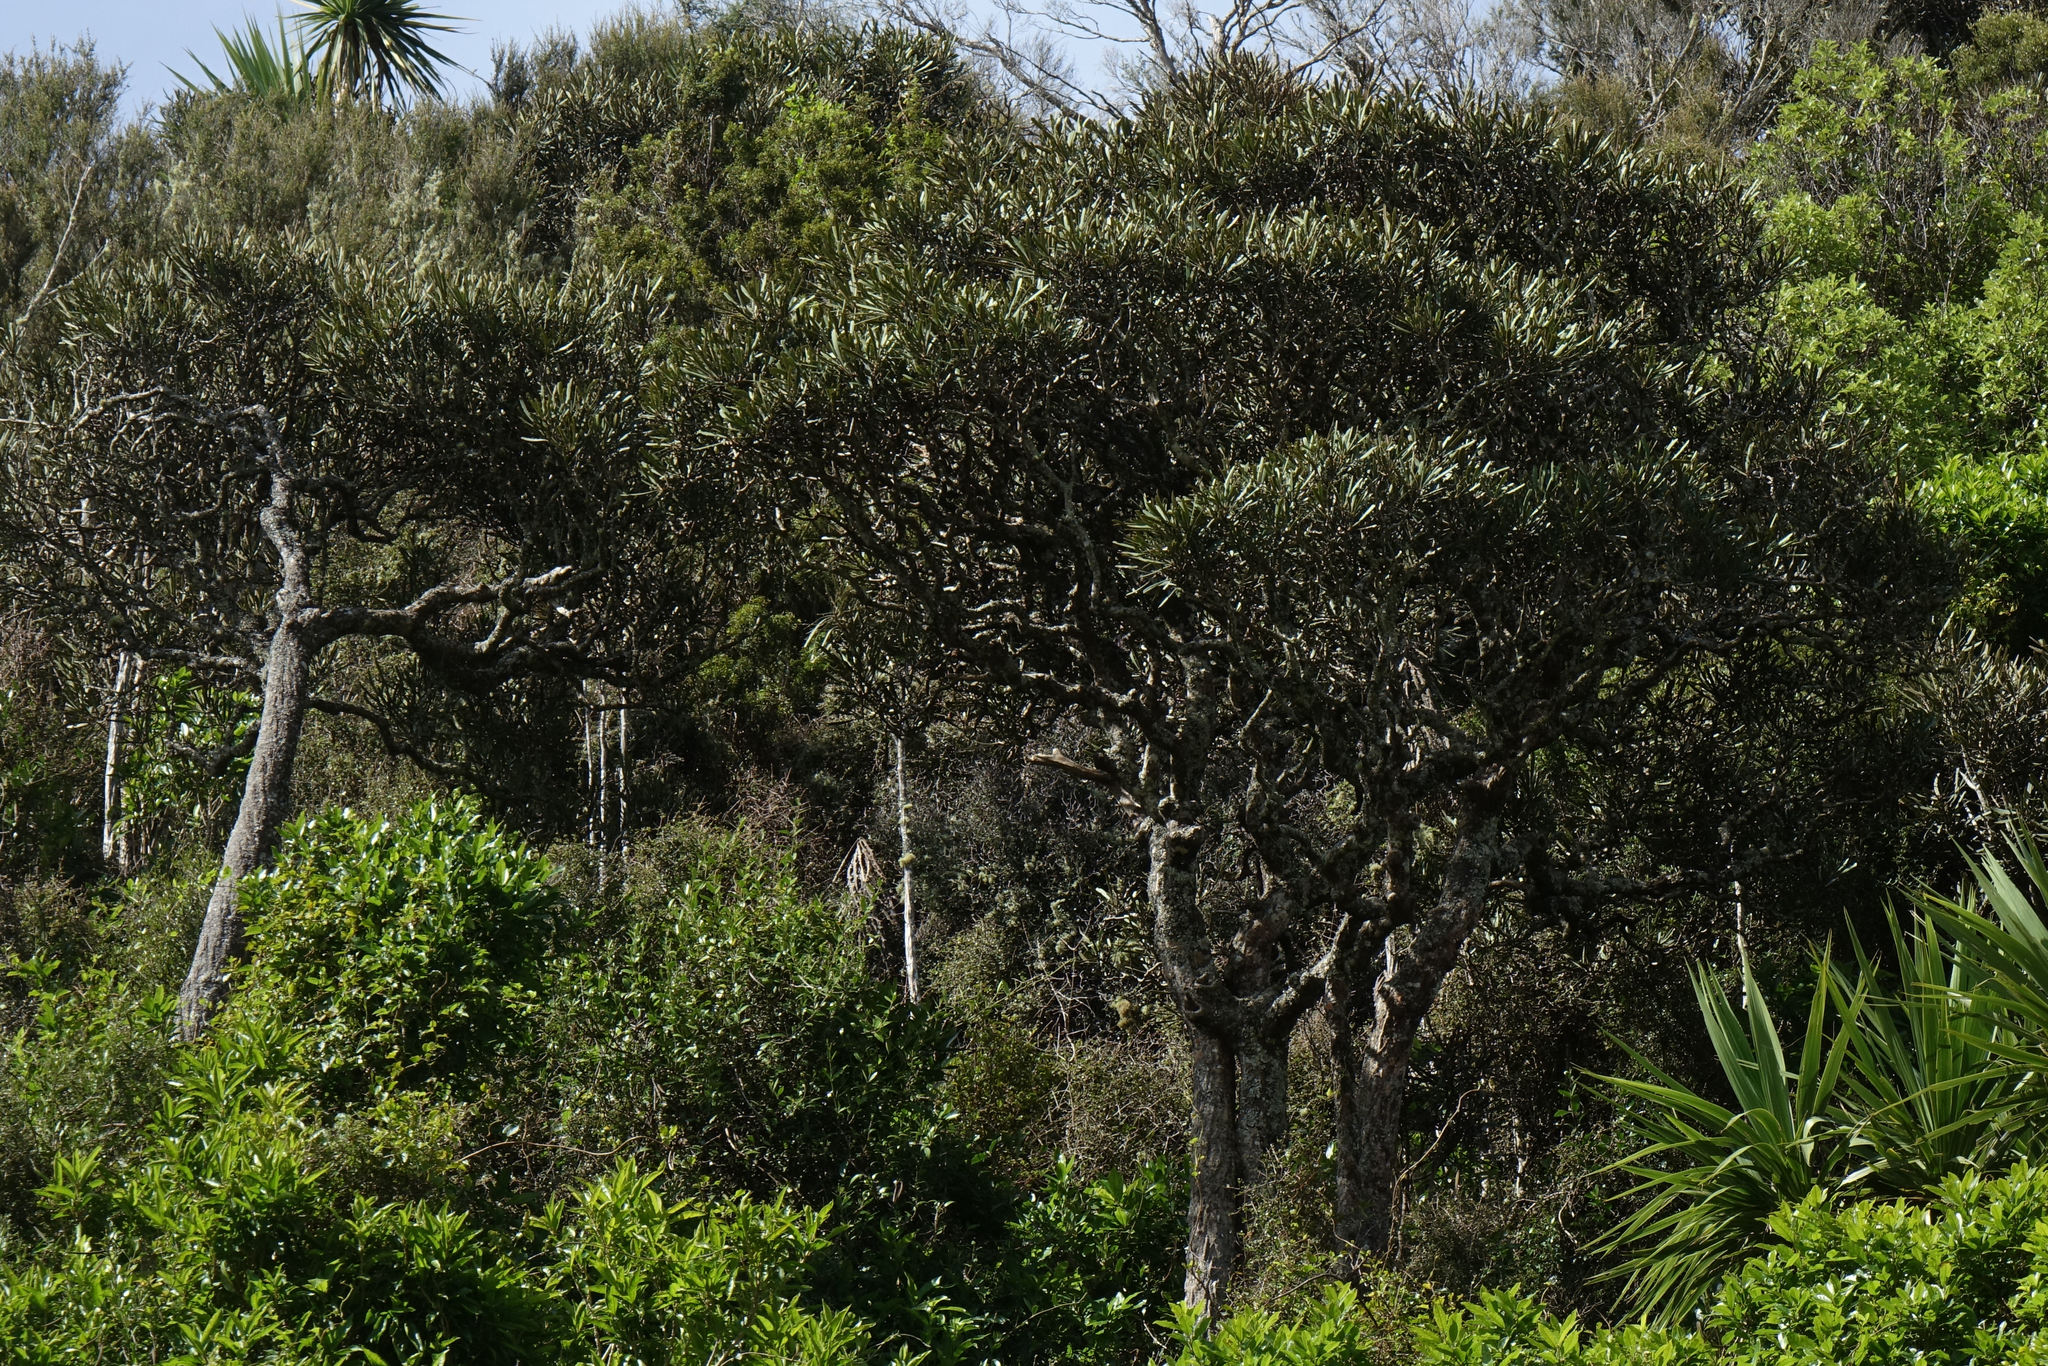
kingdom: Plantae
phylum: Tracheophyta
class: Magnoliopsida
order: Apiales
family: Araliaceae
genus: Pseudopanax
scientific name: Pseudopanax ferox
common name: Fierce lancewood
